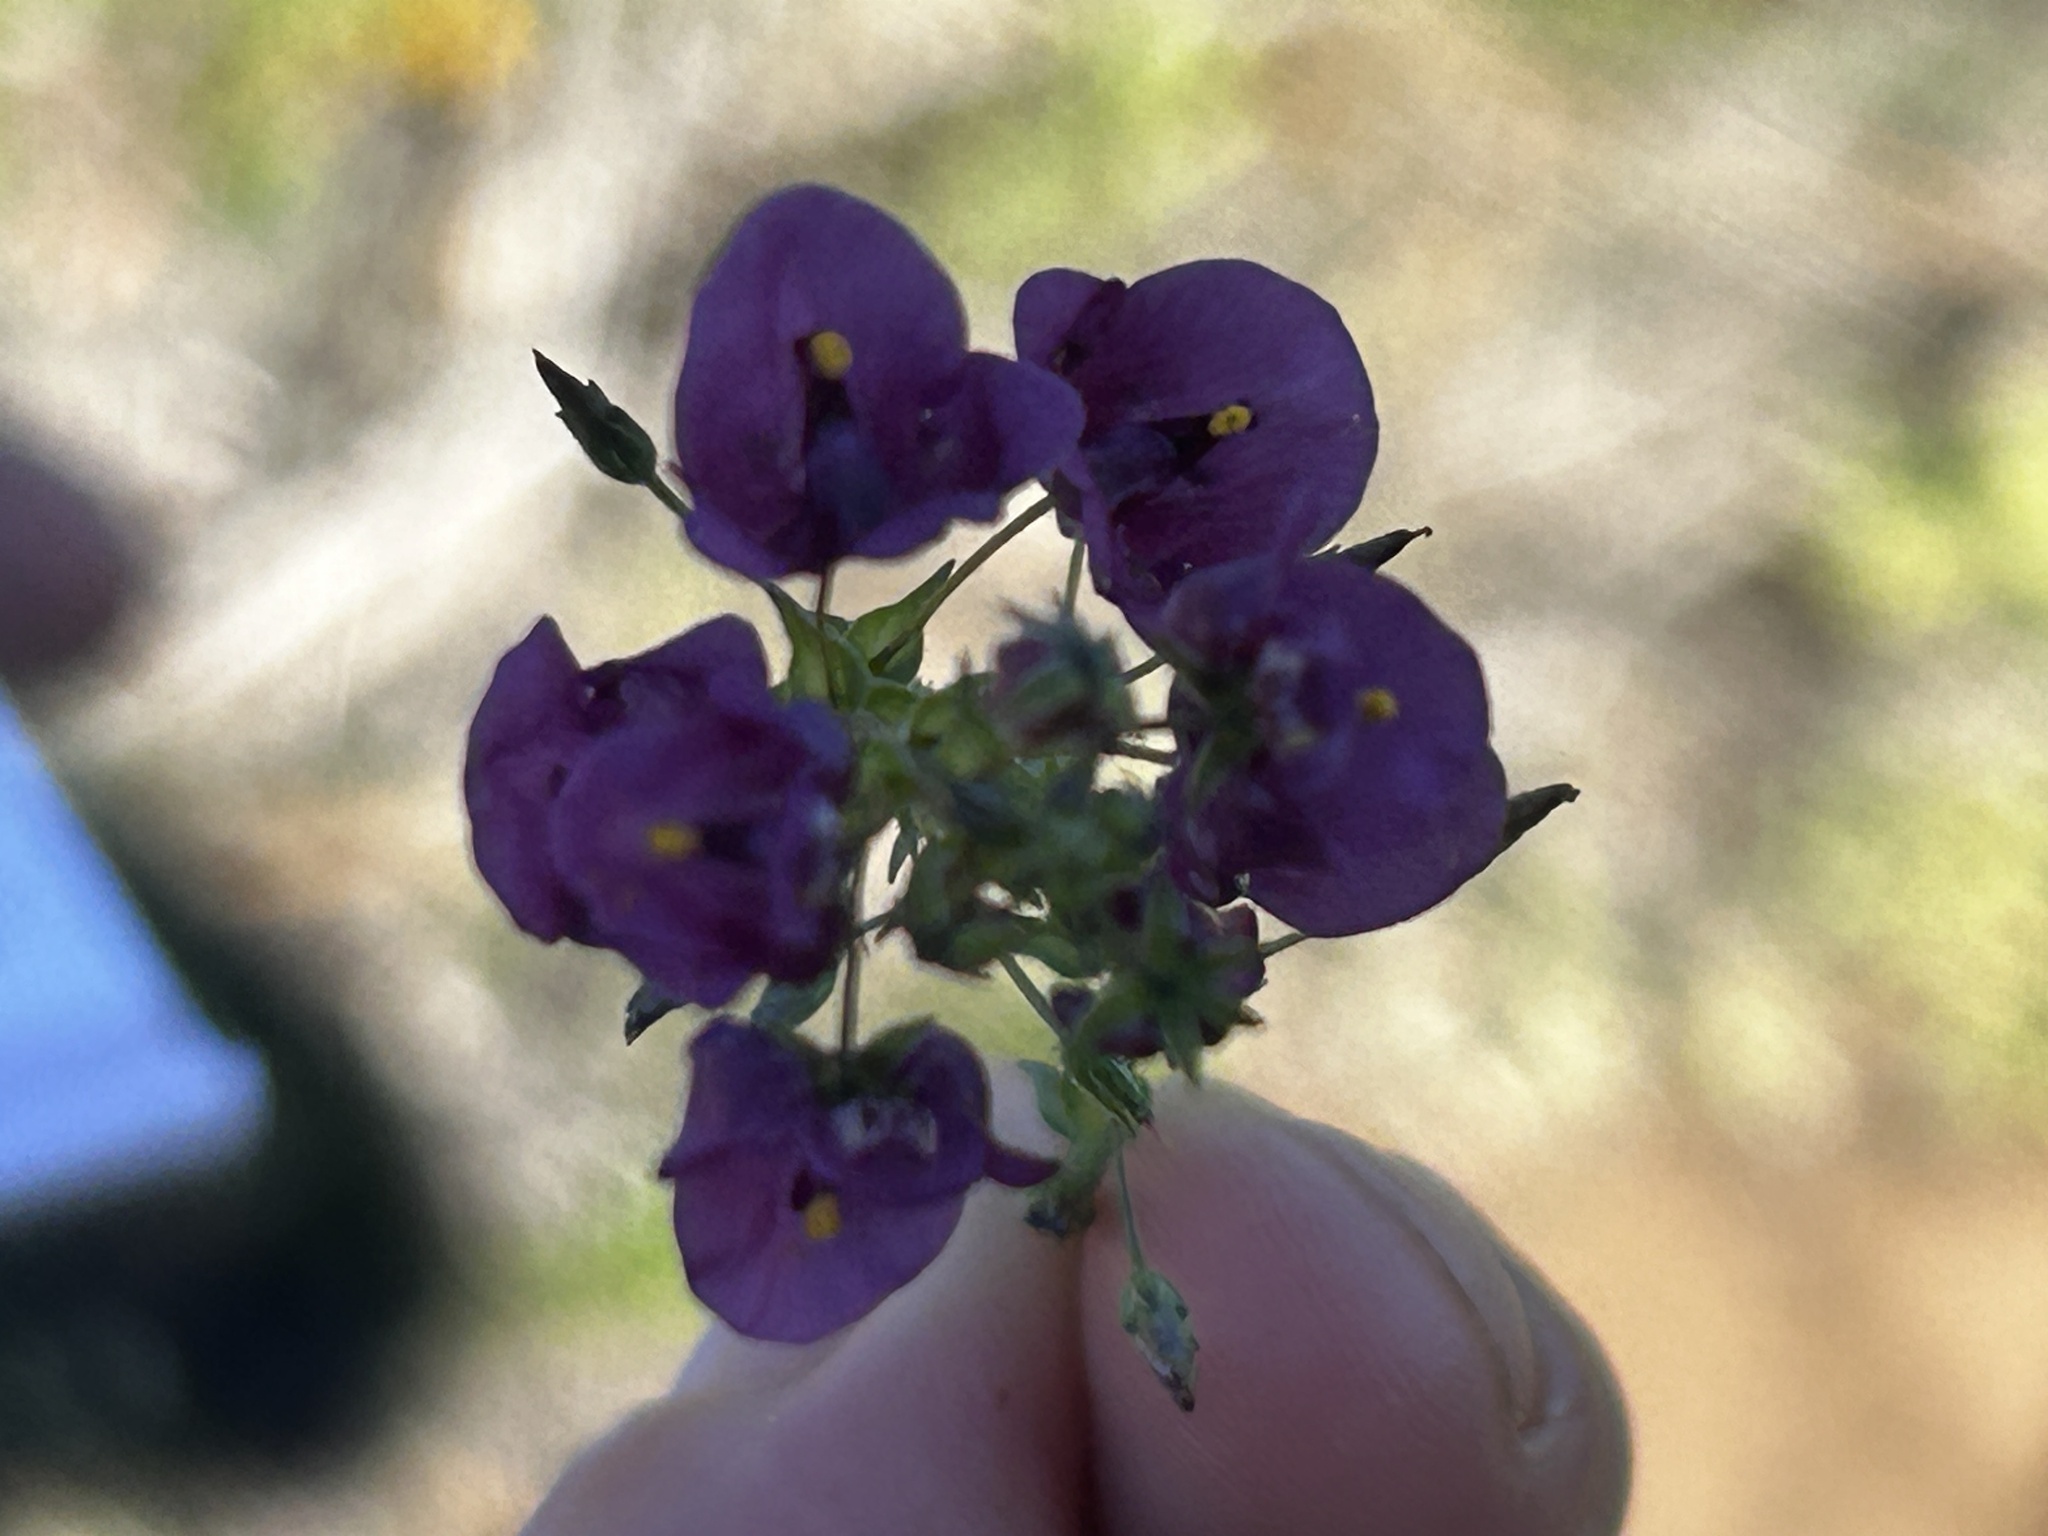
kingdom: Plantae
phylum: Tracheophyta
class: Magnoliopsida
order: Lamiales
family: Scrophulariaceae
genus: Diascia
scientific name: Diascia capensis
